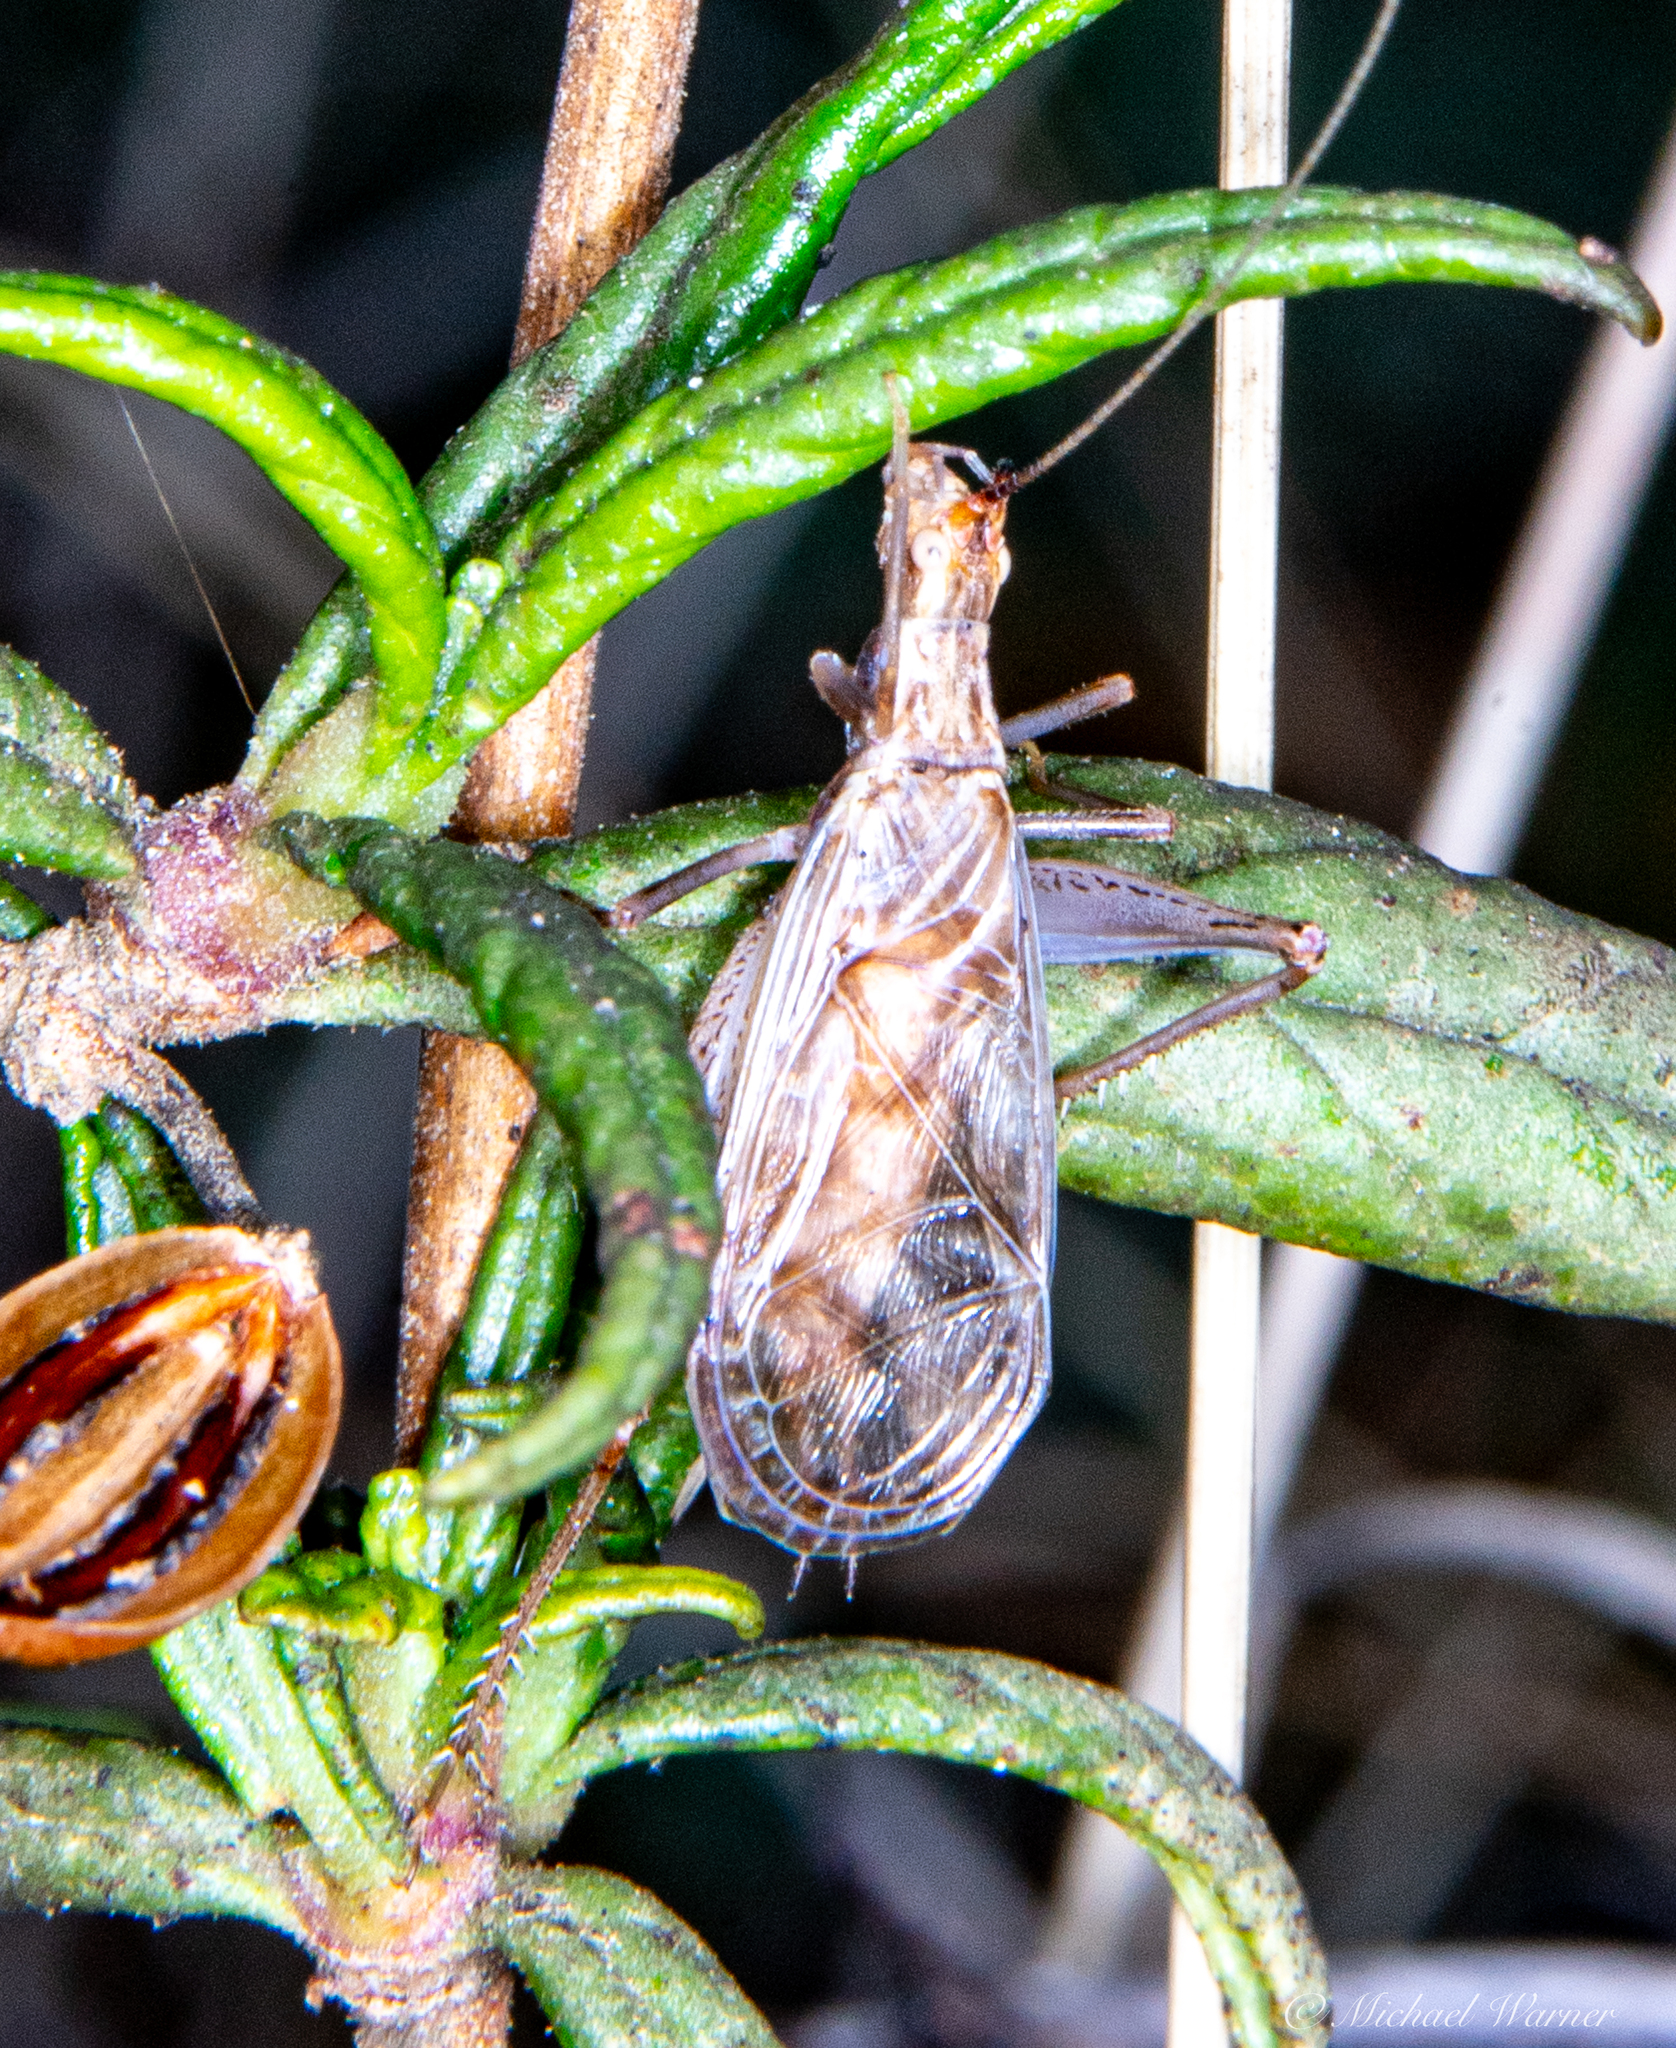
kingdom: Animalia
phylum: Arthropoda
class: Insecta
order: Orthoptera
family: Gryllidae
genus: Oecanthus
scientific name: Oecanthus californicus
